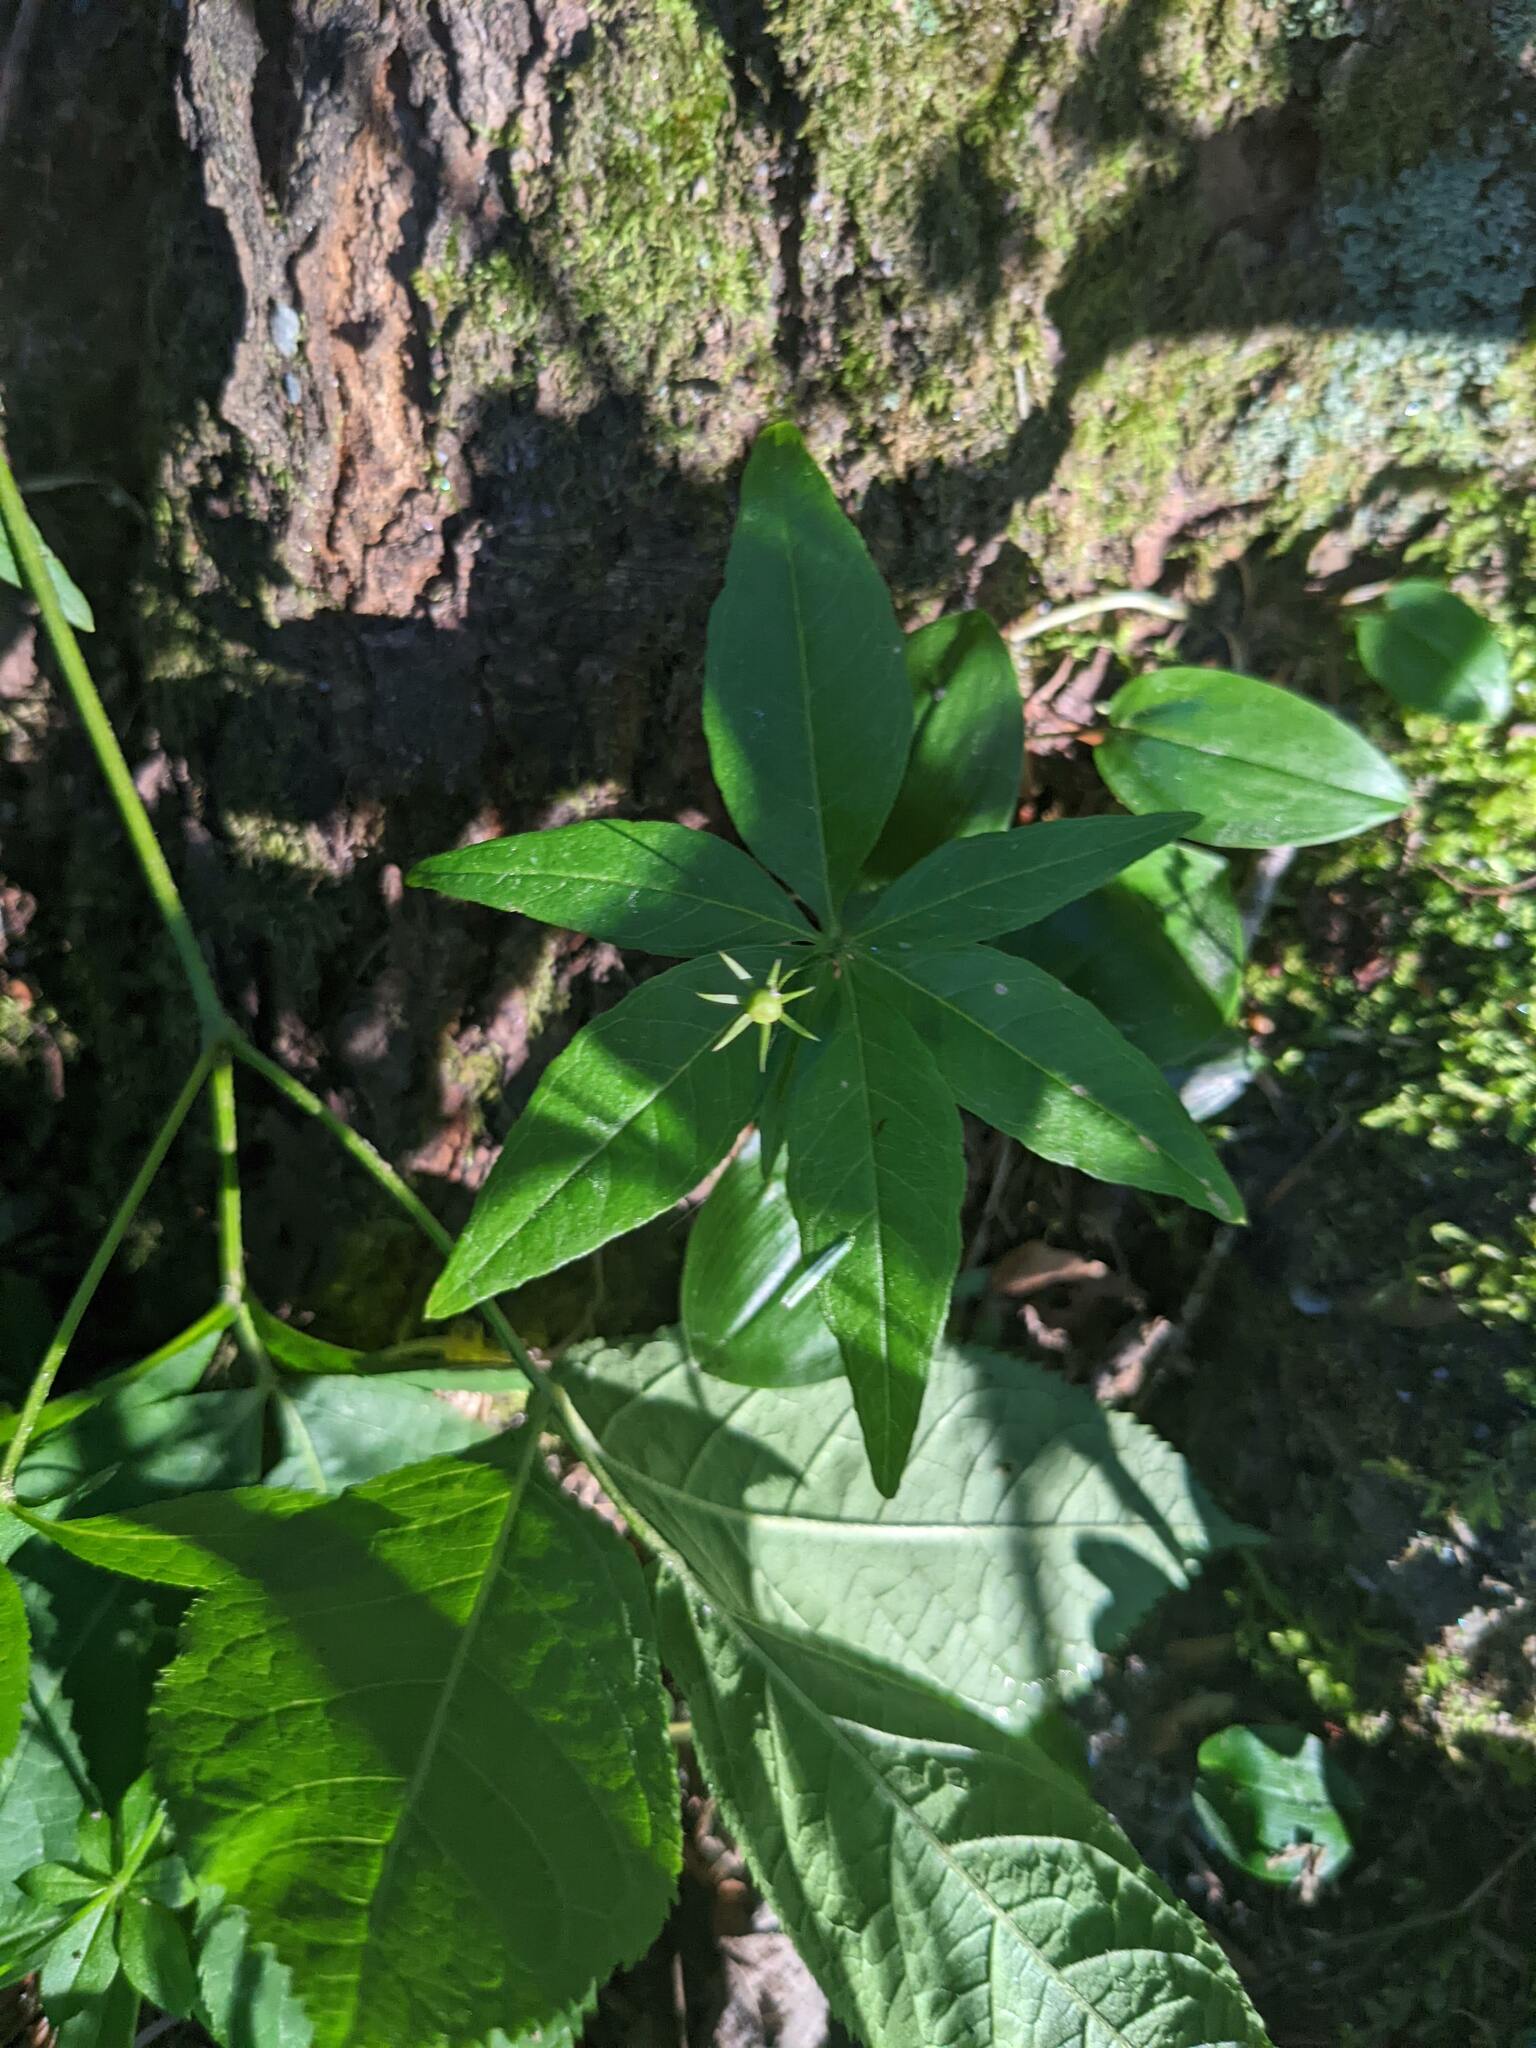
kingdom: Plantae
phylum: Tracheophyta
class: Magnoliopsida
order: Ericales
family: Primulaceae
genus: Lysimachia
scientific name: Lysimachia borealis
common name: American starflower
